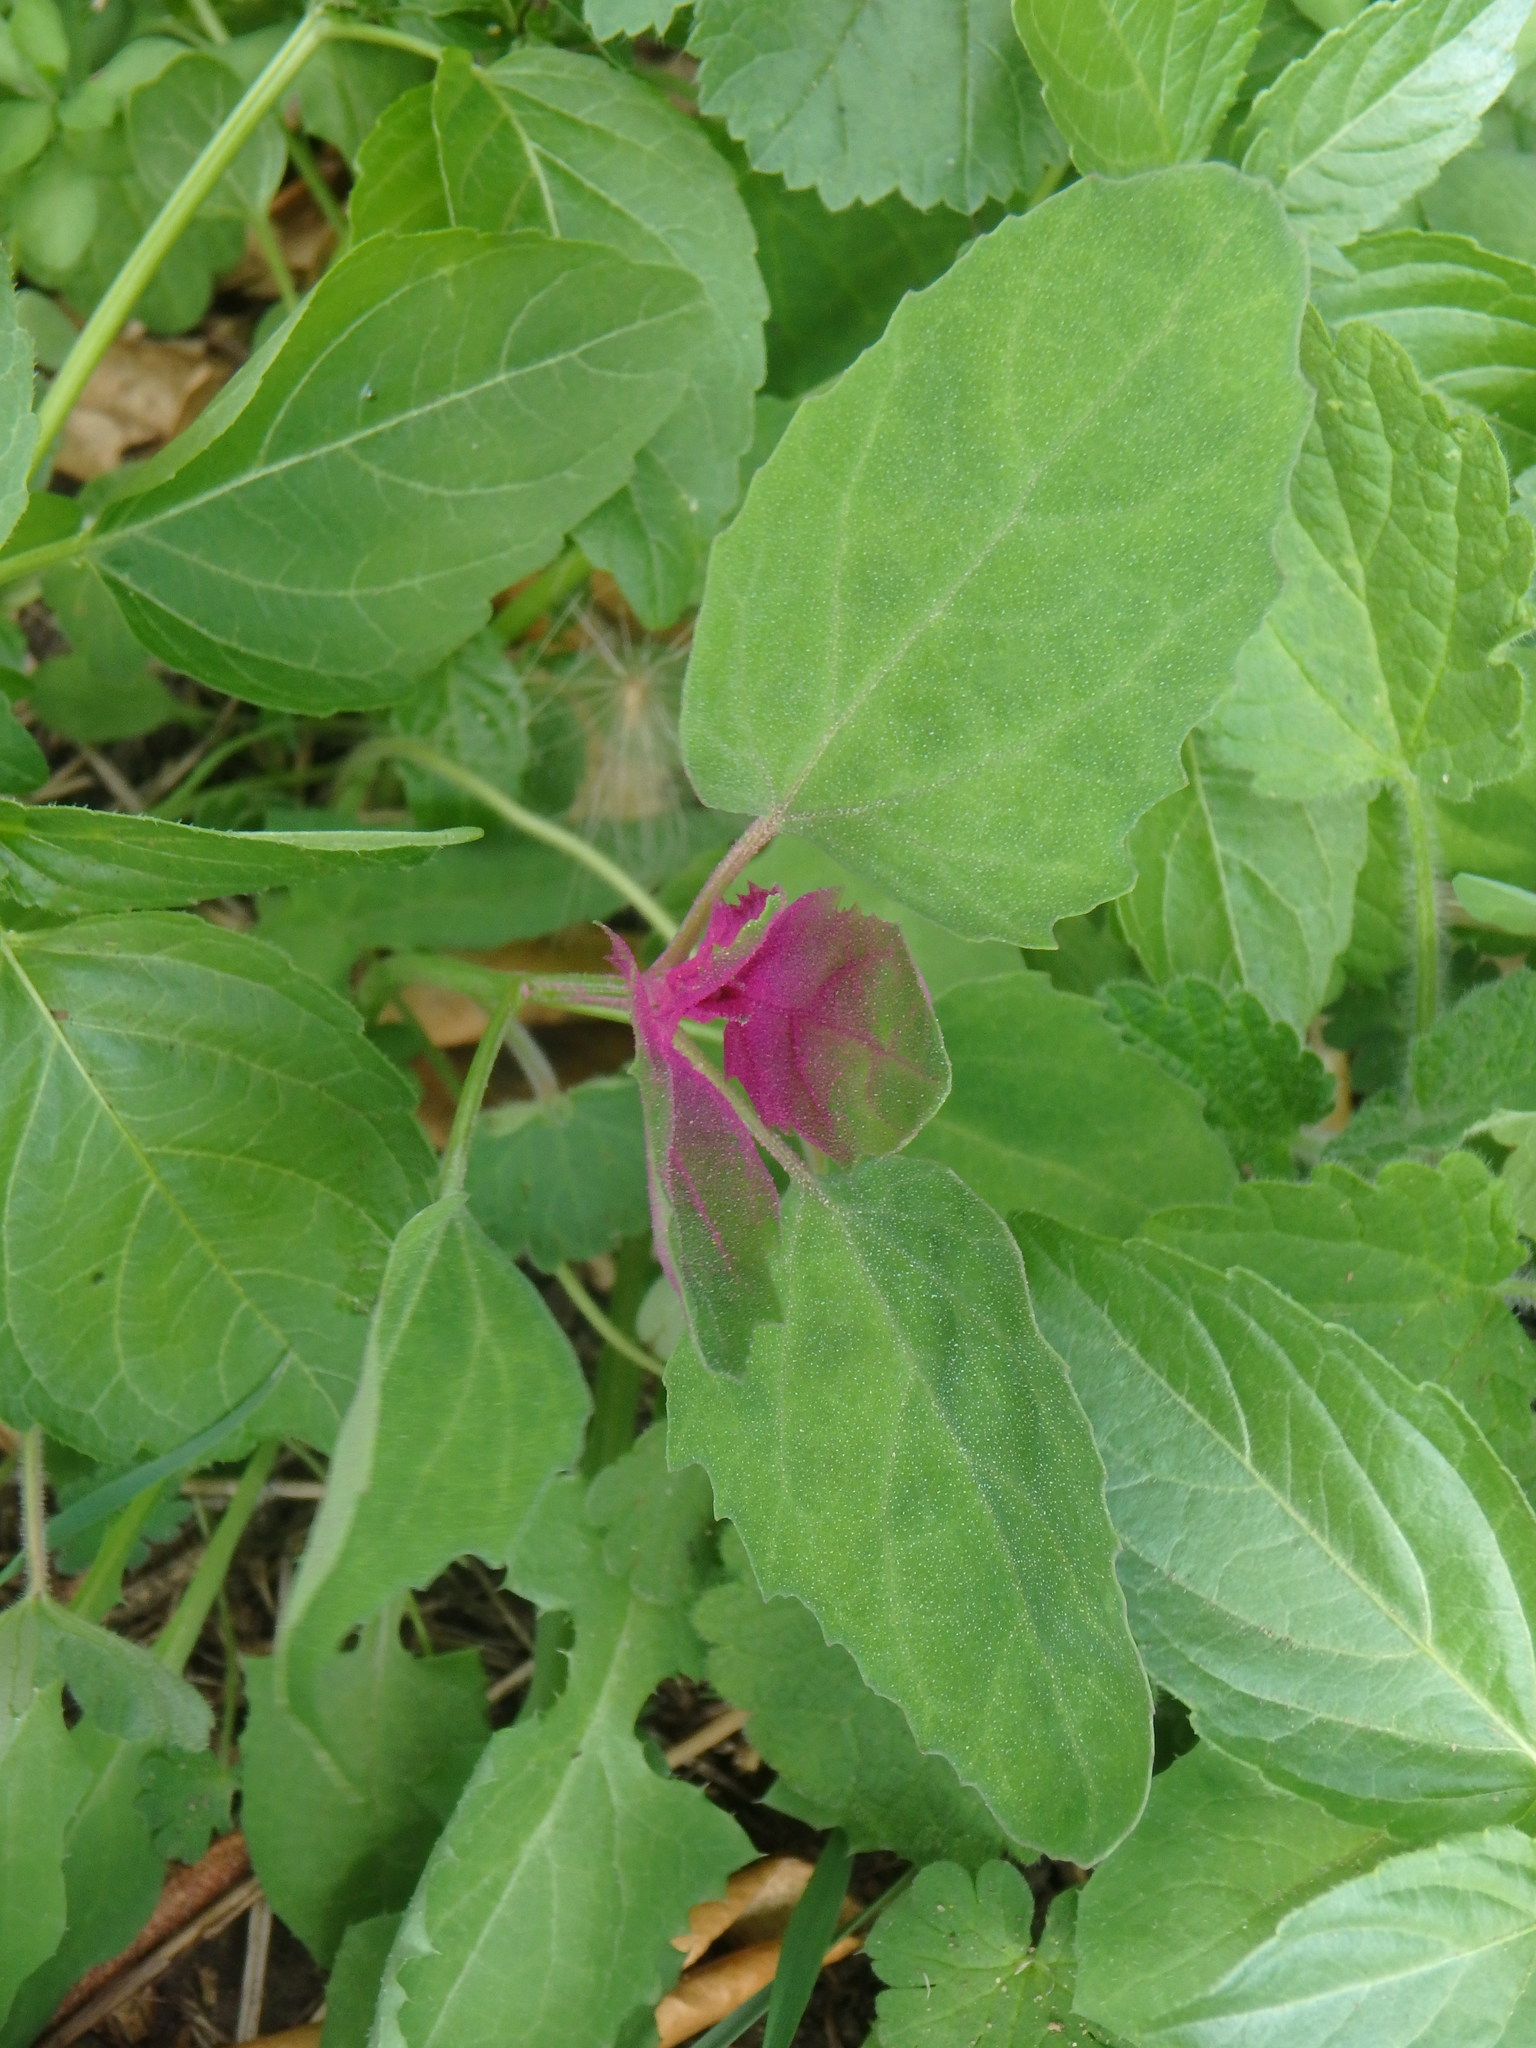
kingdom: Plantae
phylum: Tracheophyta
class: Magnoliopsida
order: Caryophyllales
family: Amaranthaceae
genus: Chenopodium
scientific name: Chenopodium giganteum
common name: Magentaspreen
